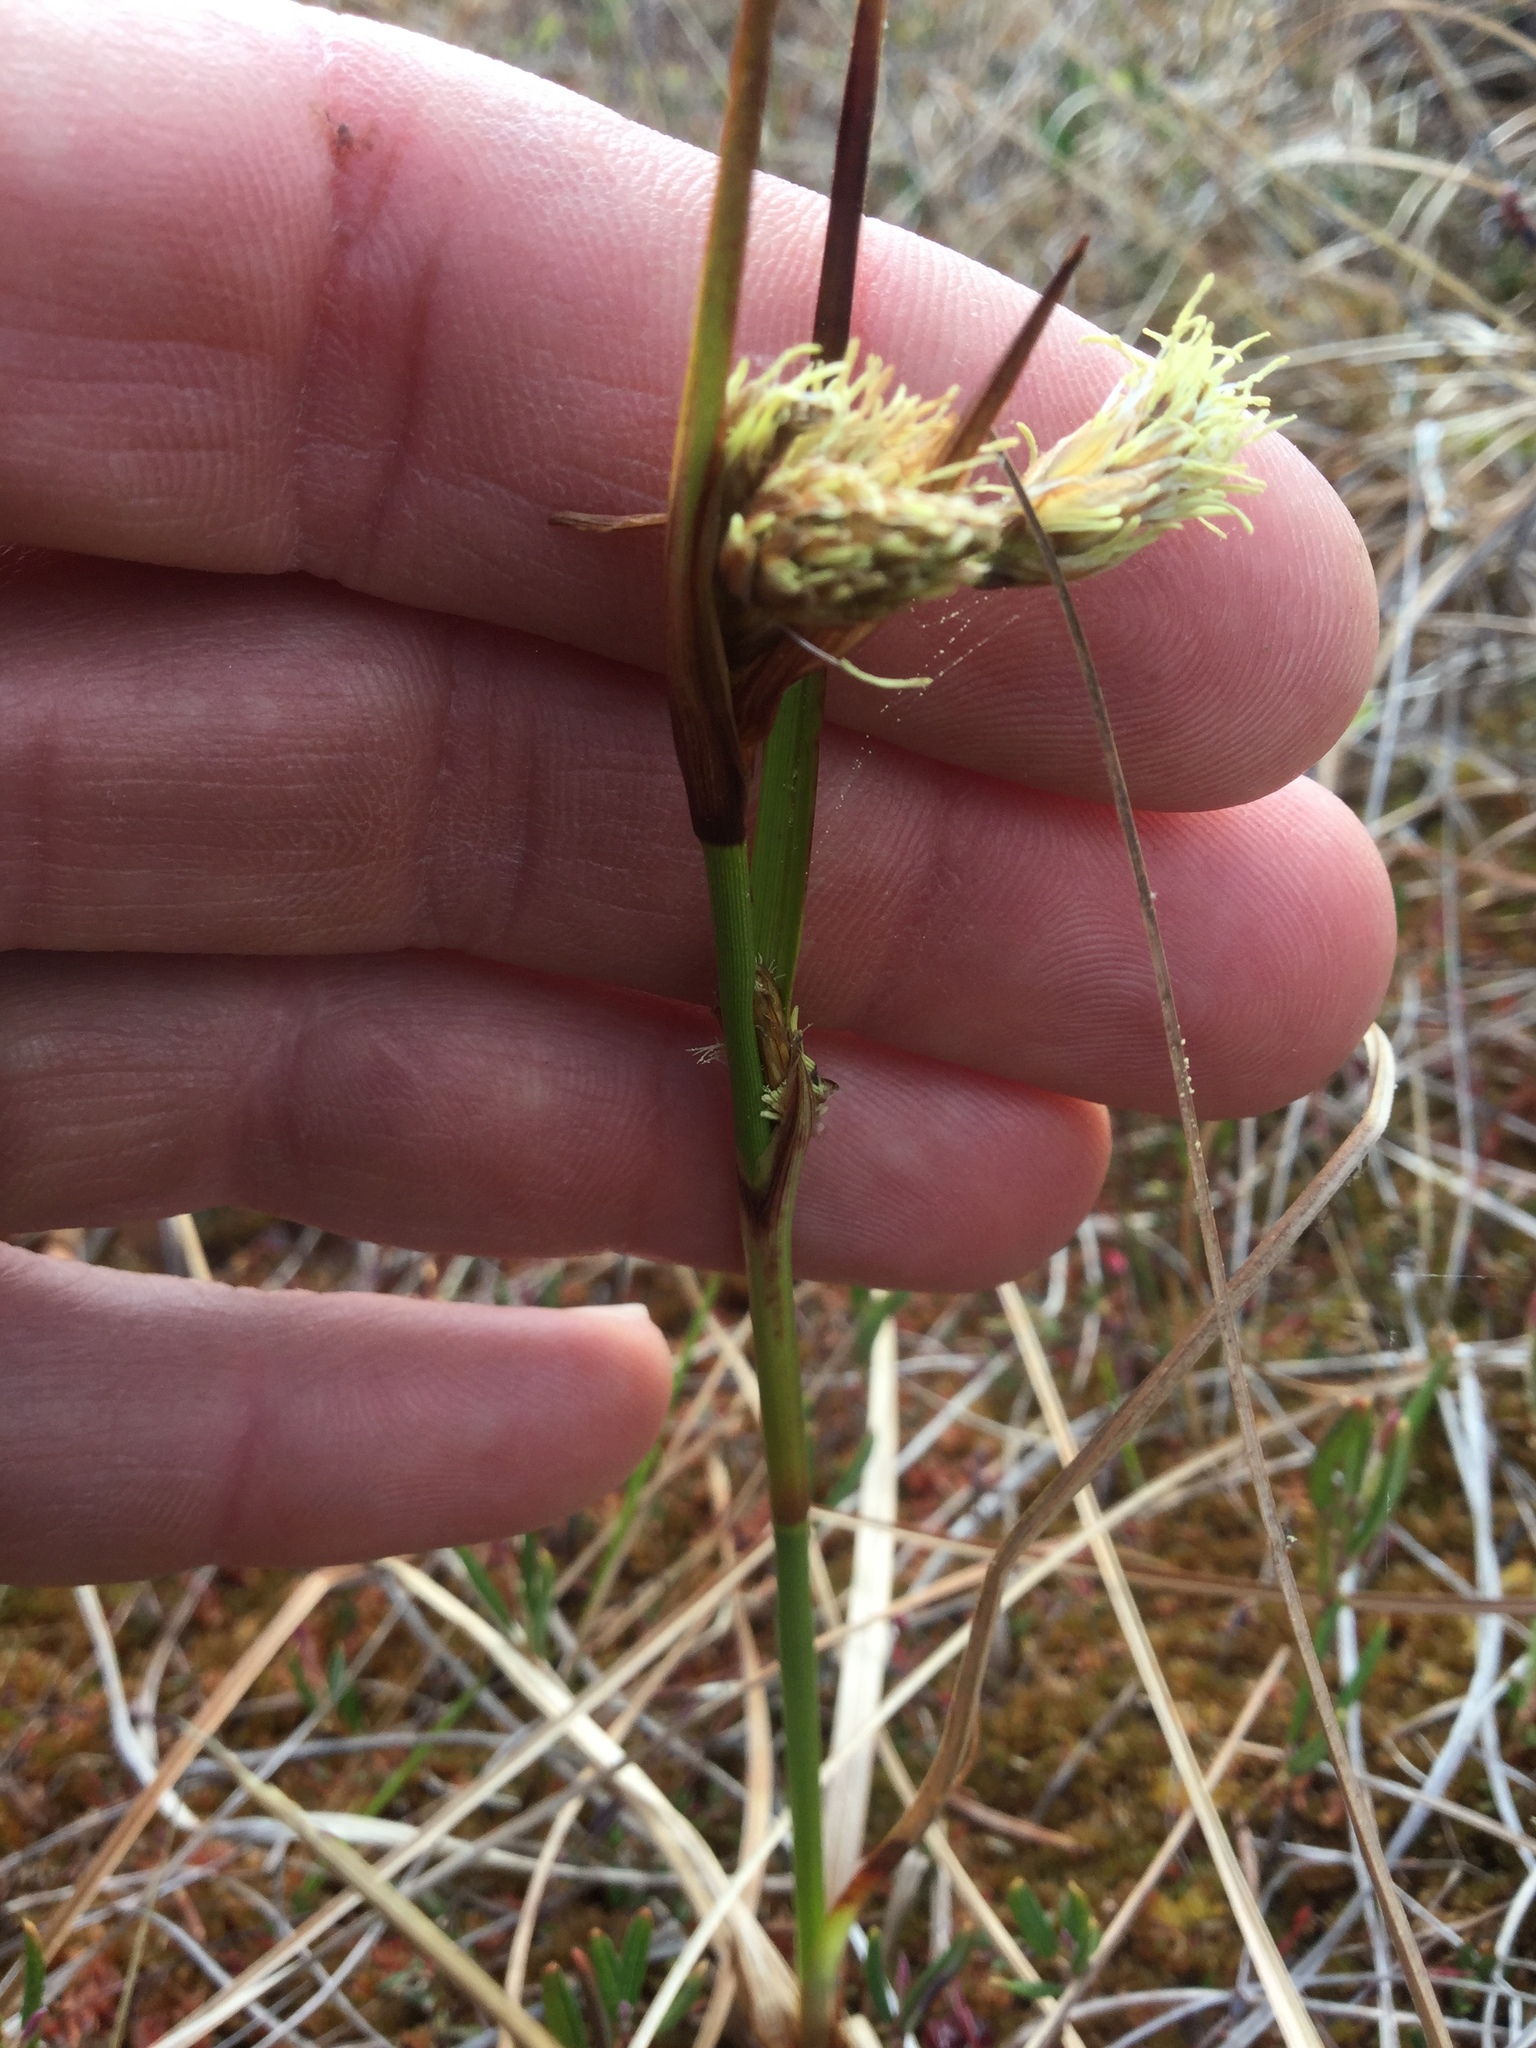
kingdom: Plantae
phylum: Tracheophyta
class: Liliopsida
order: Poales
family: Cyperaceae
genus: Eriophorum
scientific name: Eriophorum angustifolium
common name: Common cottongrass
